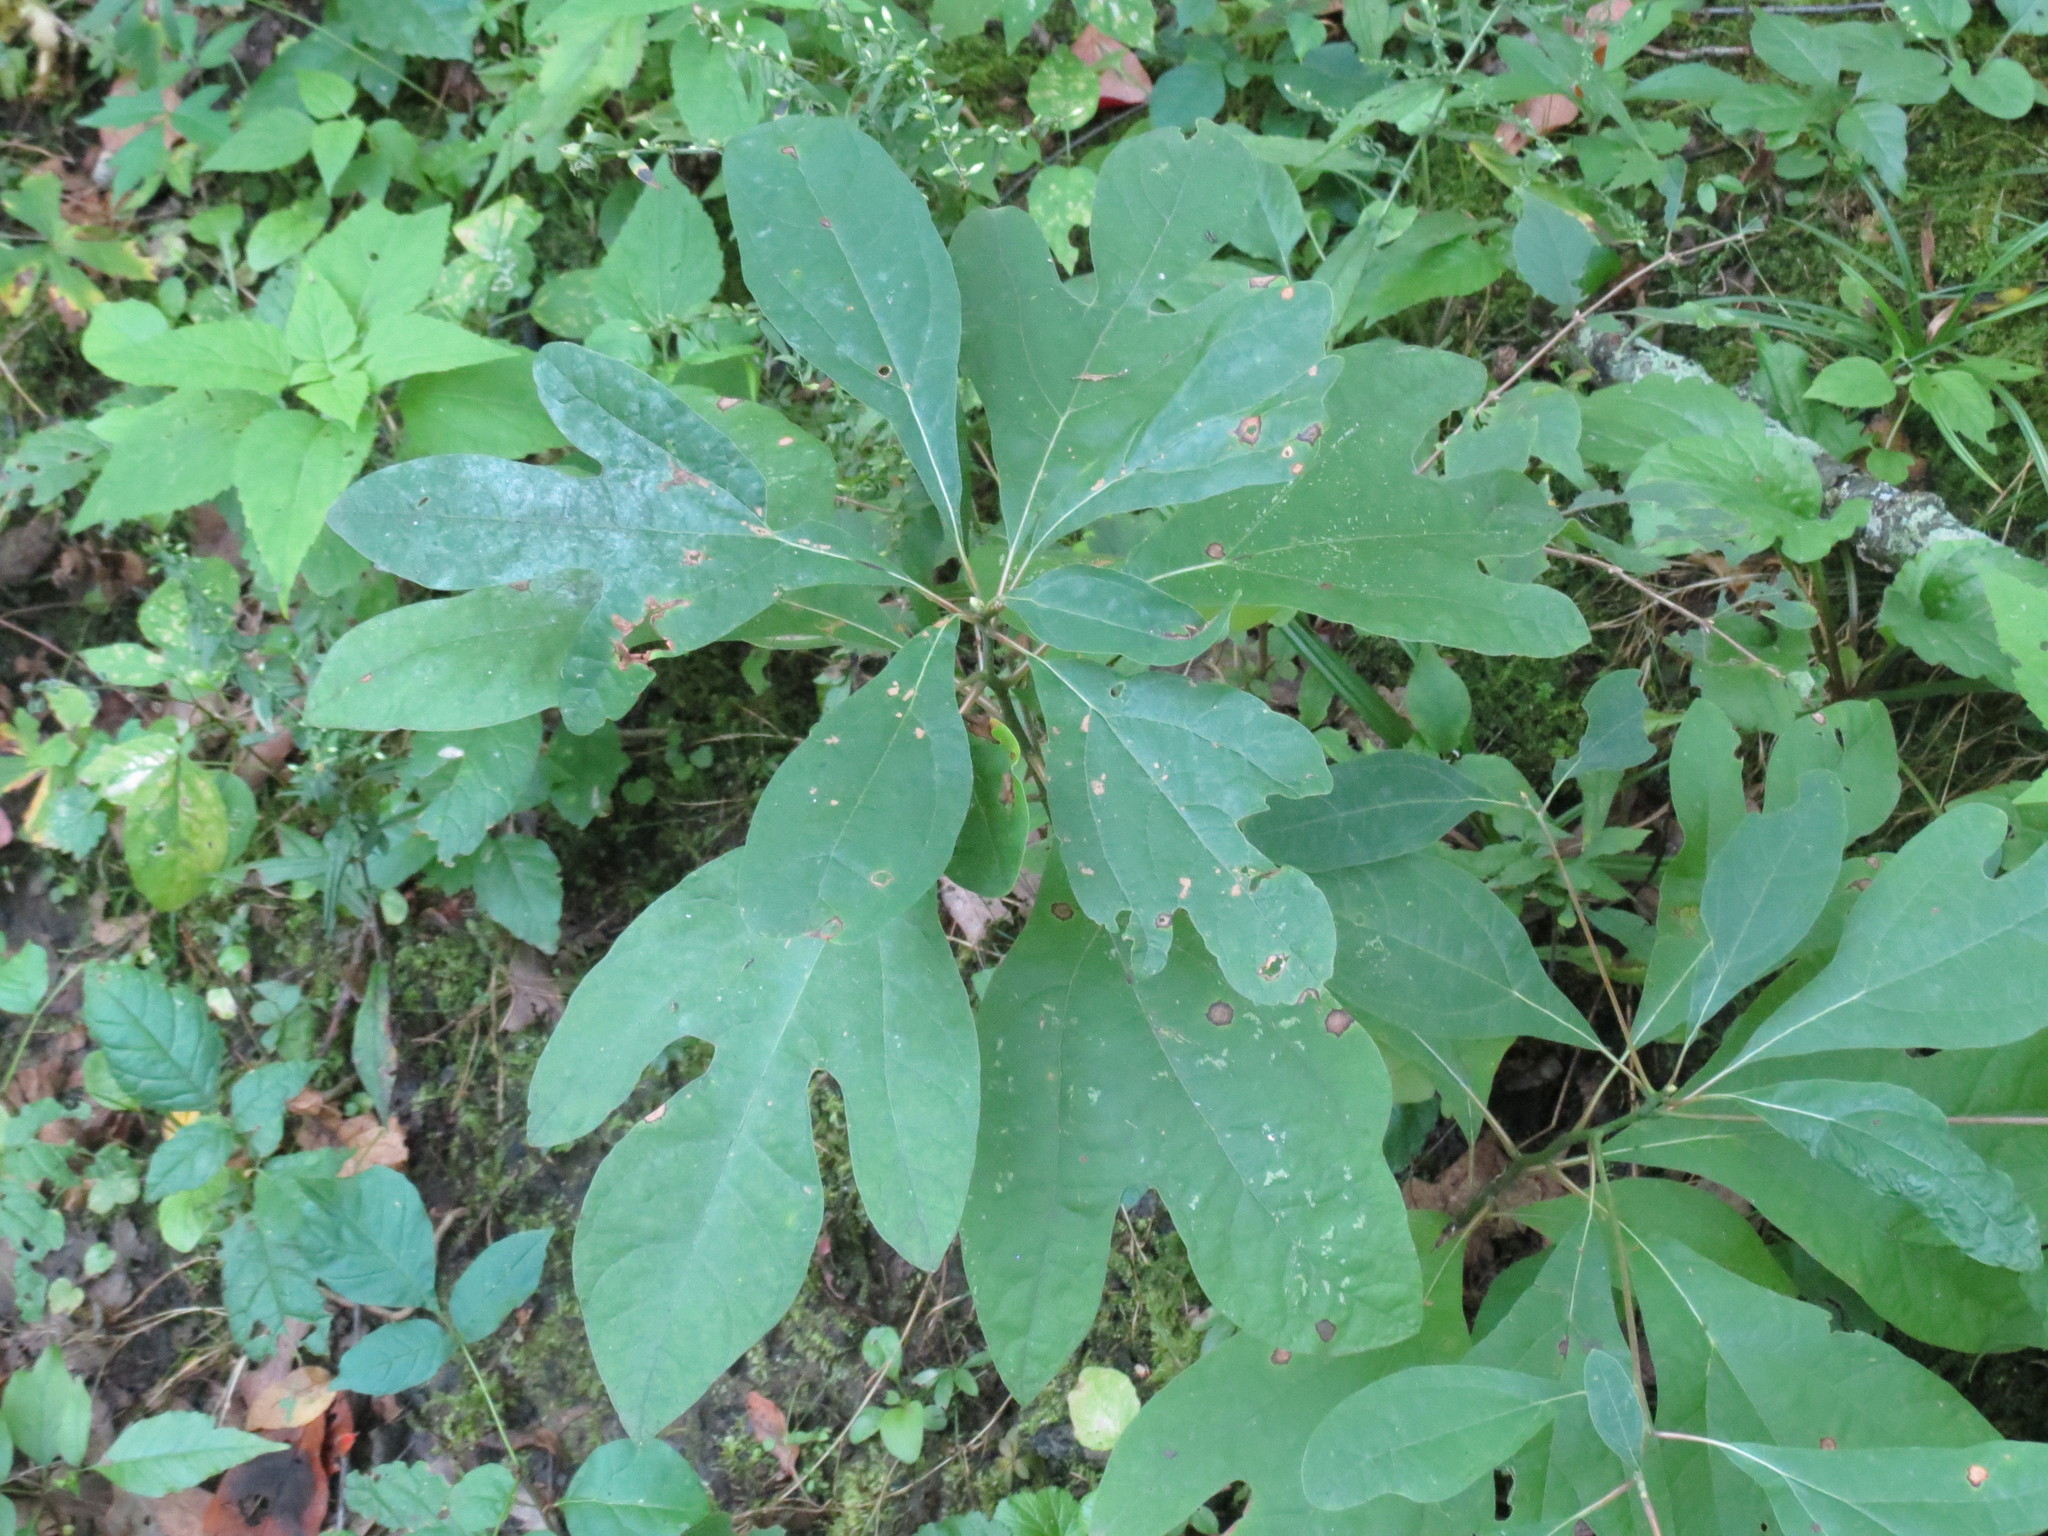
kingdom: Plantae
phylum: Tracheophyta
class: Magnoliopsida
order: Laurales
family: Lauraceae
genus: Sassafras
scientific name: Sassafras albidum
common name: Sassafras
